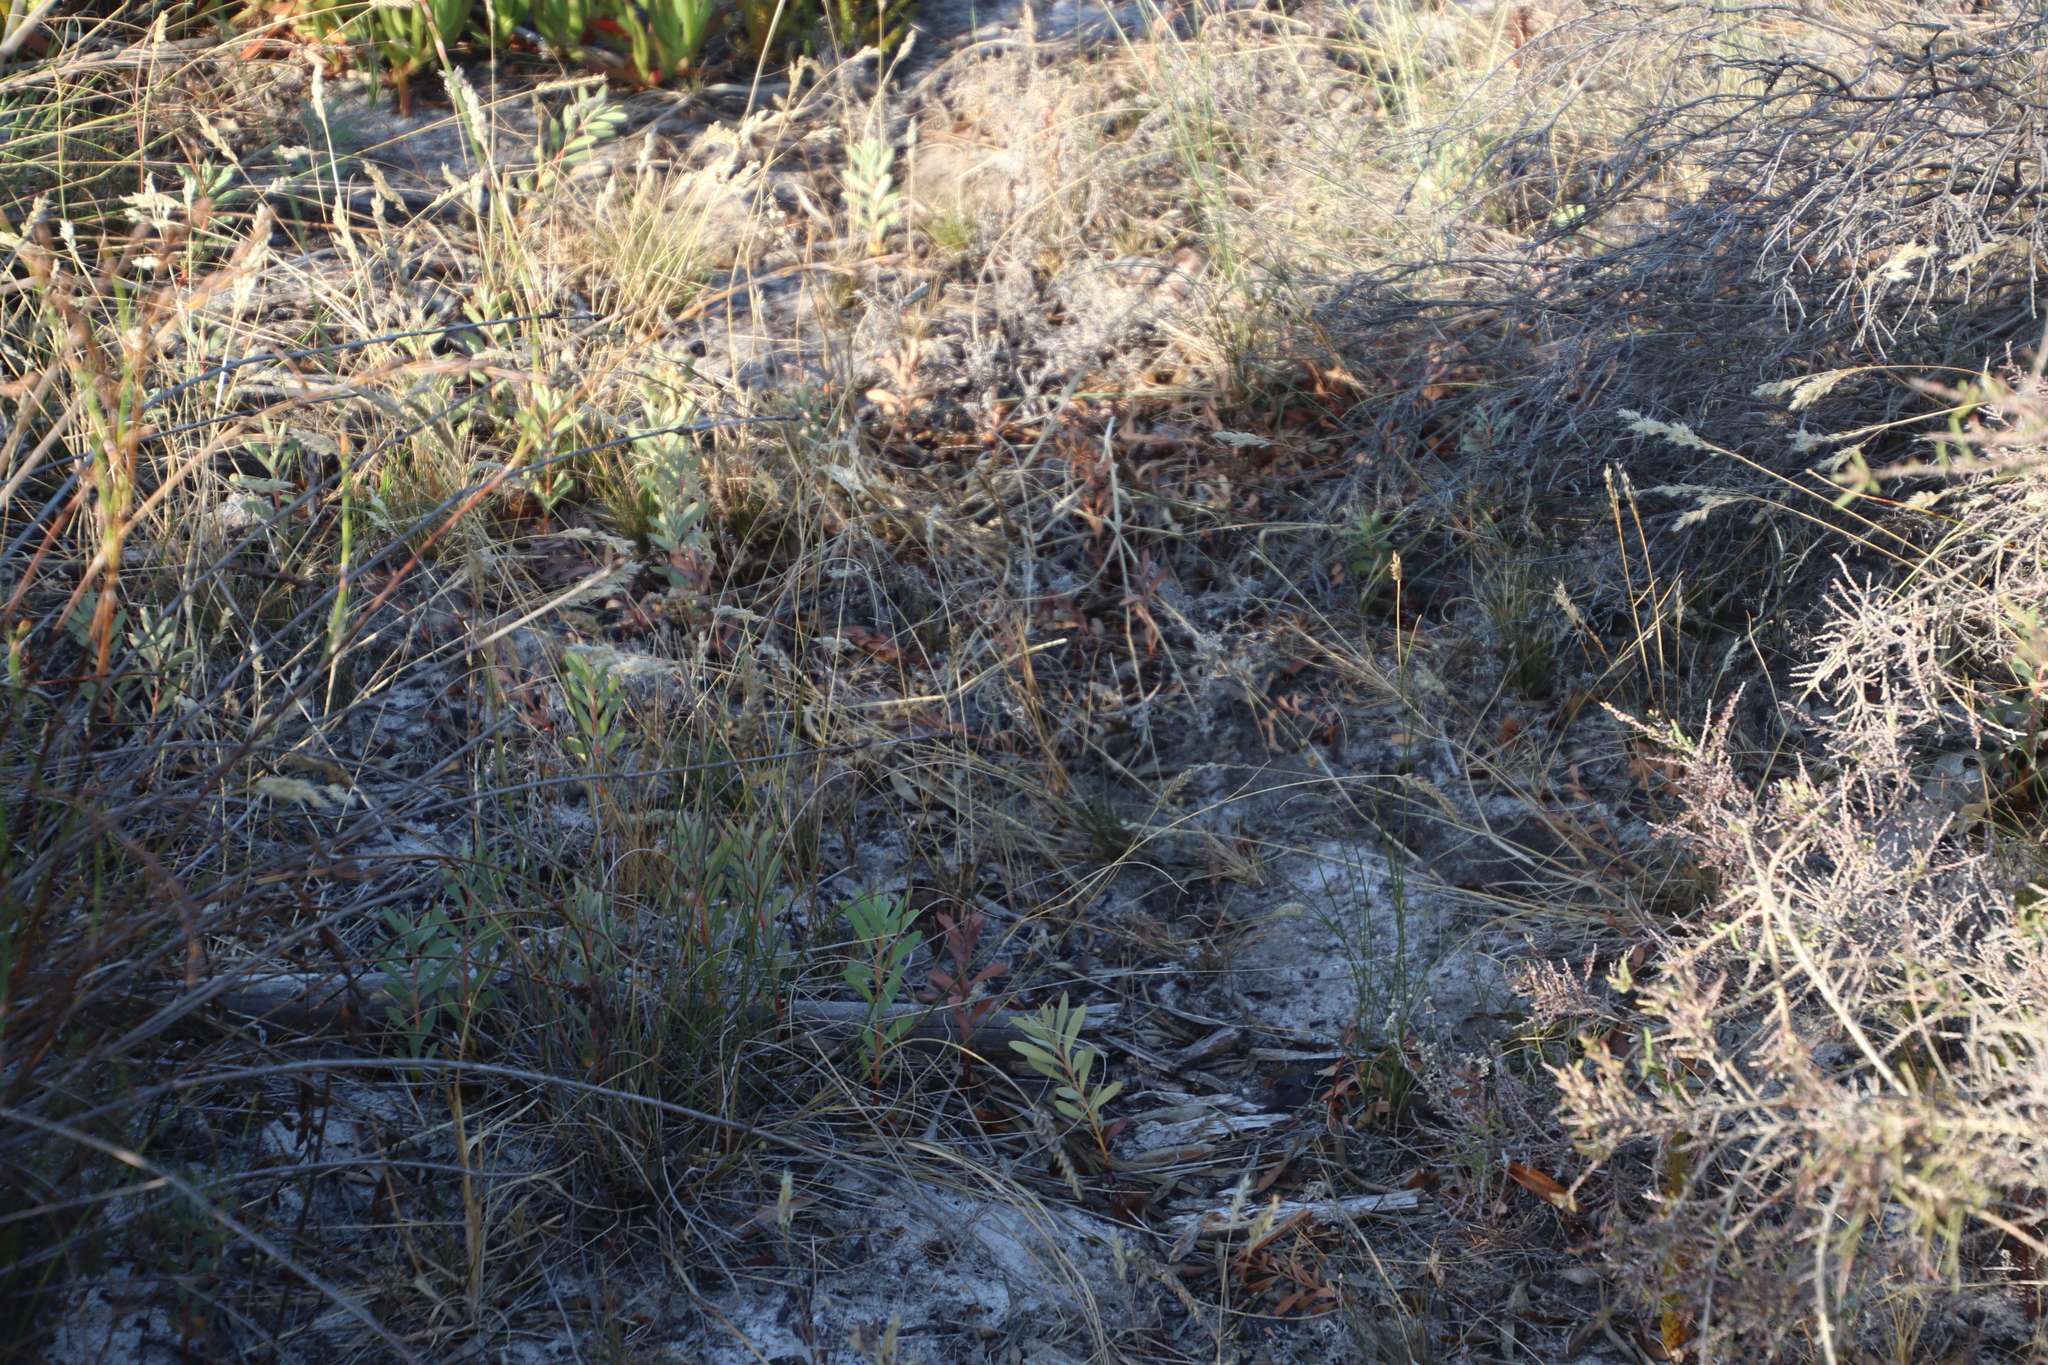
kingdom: Plantae
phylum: Tracheophyta
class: Magnoliopsida
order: Proteales
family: Proteaceae
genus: Protea
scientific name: Protea repens
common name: Sugarbush
